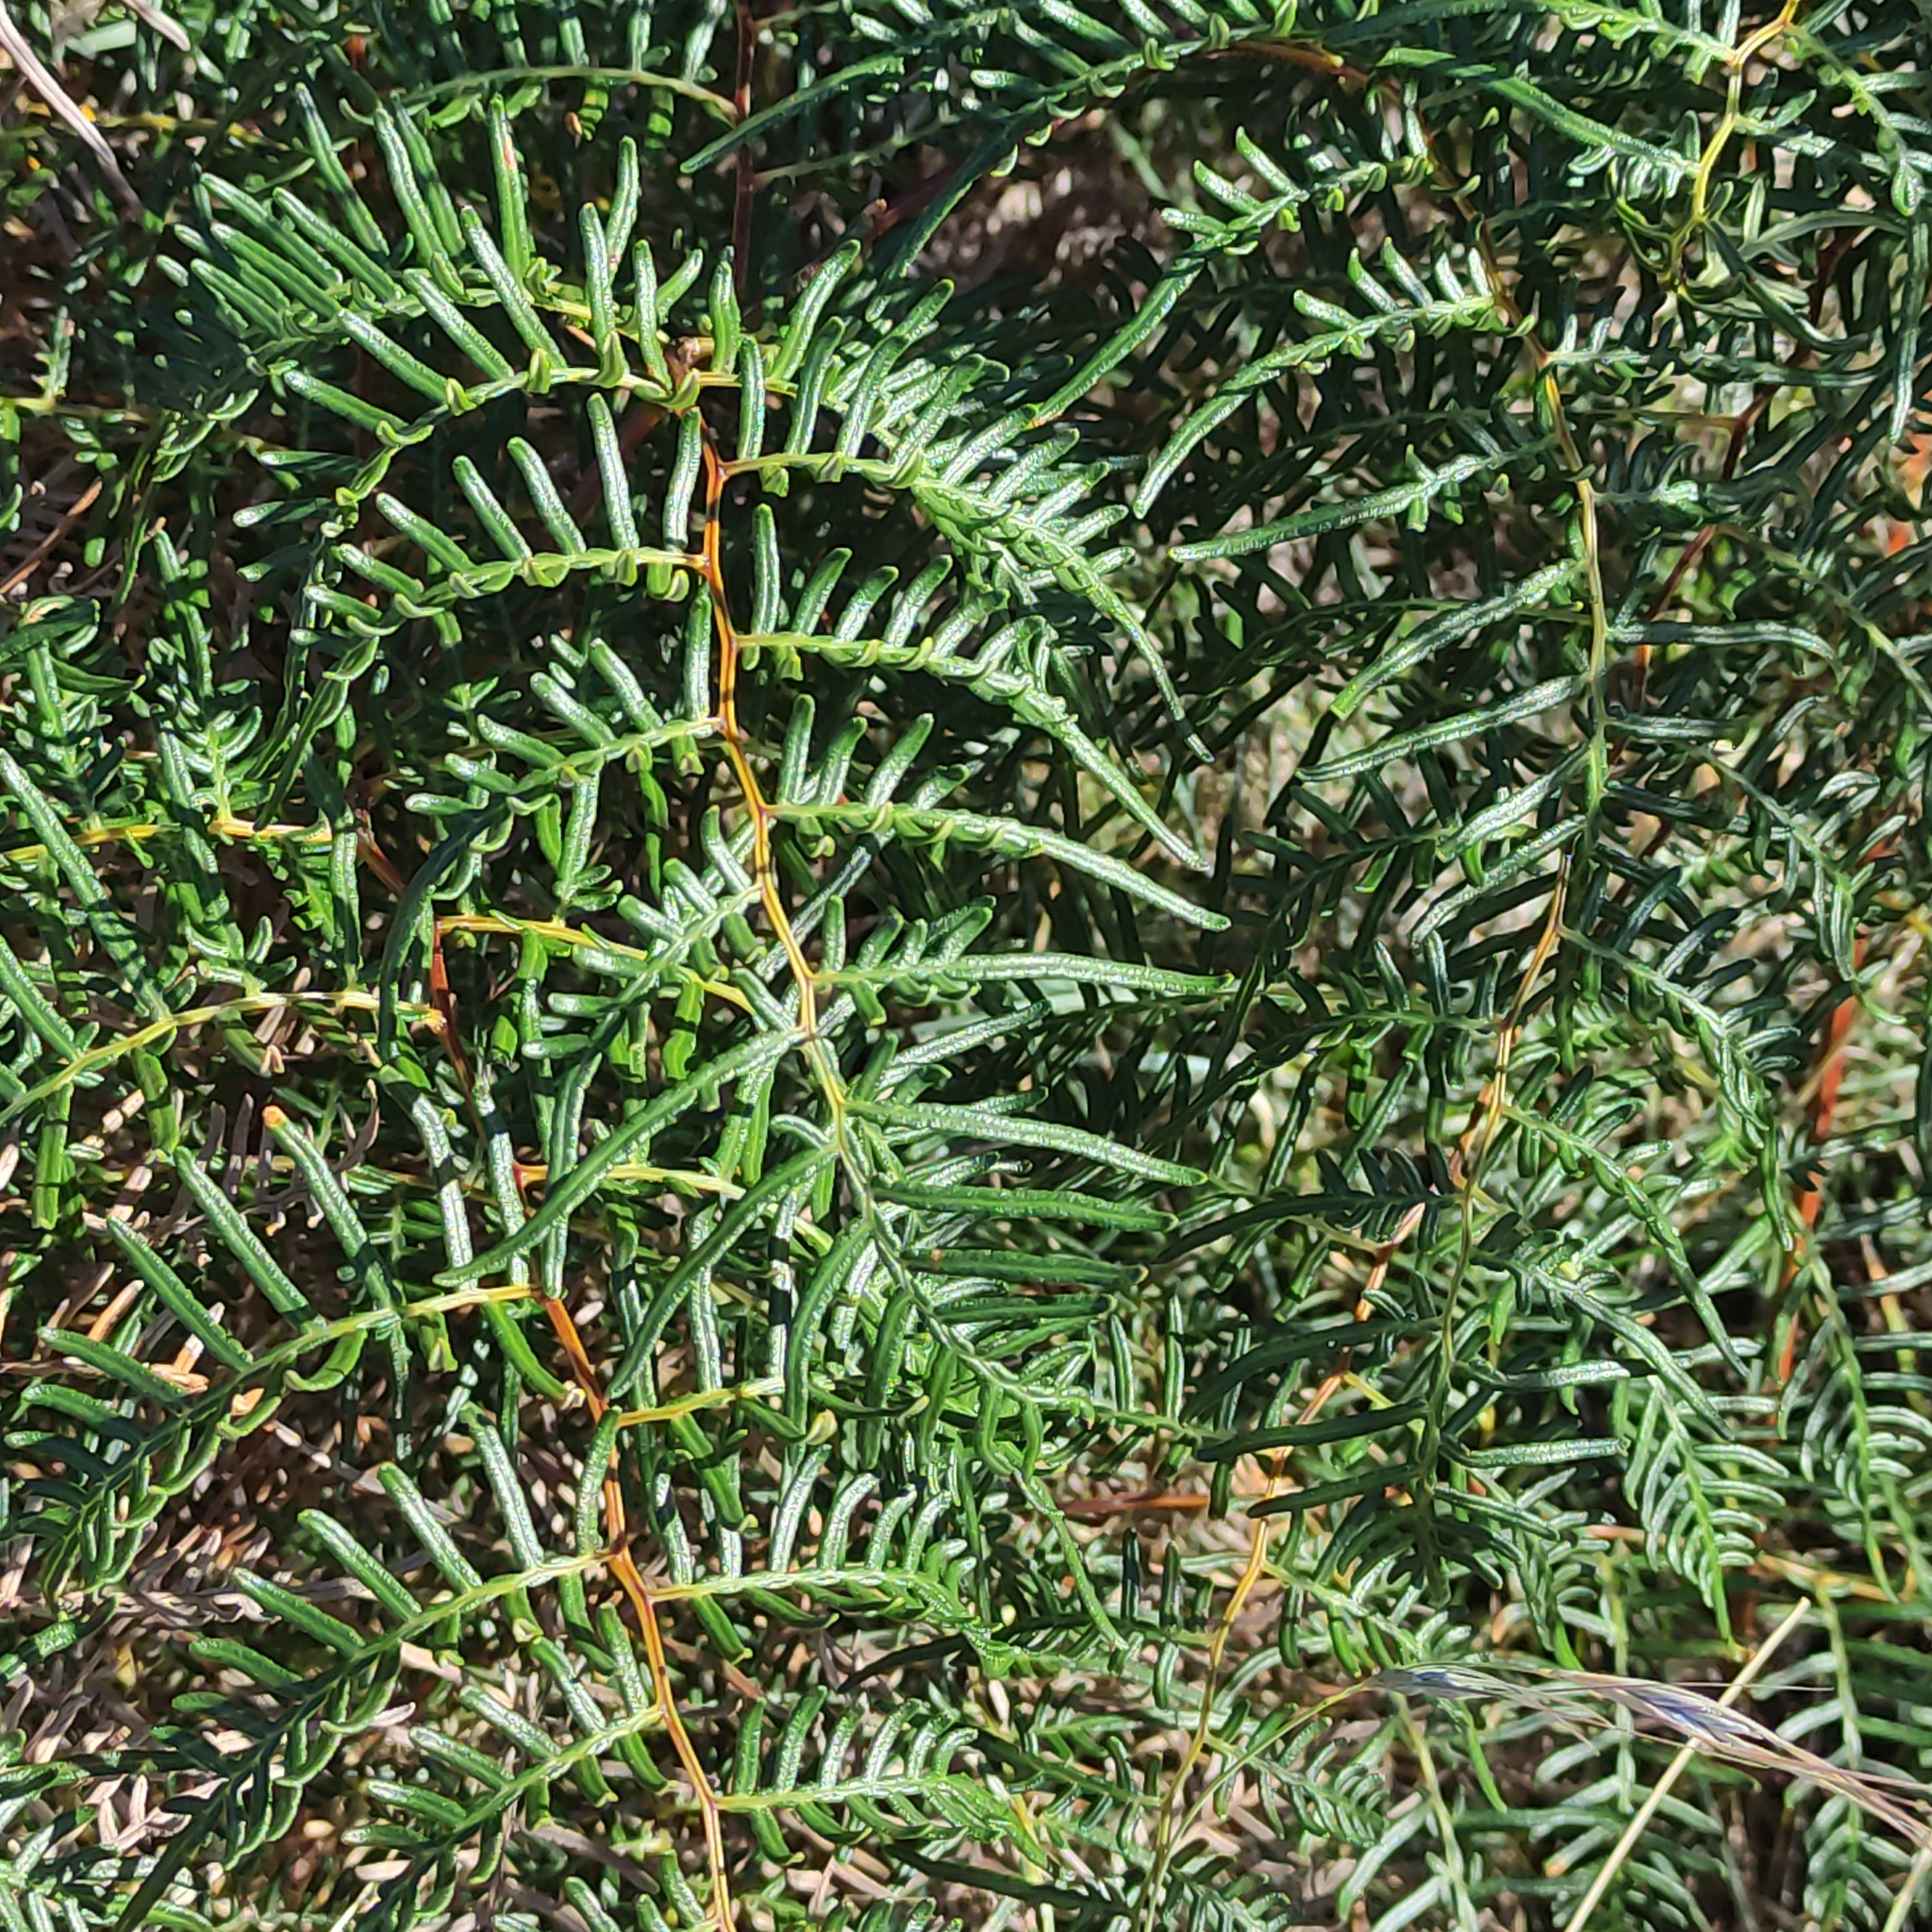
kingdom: Plantae
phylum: Tracheophyta
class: Polypodiopsida
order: Polypodiales
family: Dennstaedtiaceae
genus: Pteridium
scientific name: Pteridium esculentum
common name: Bracken fern
